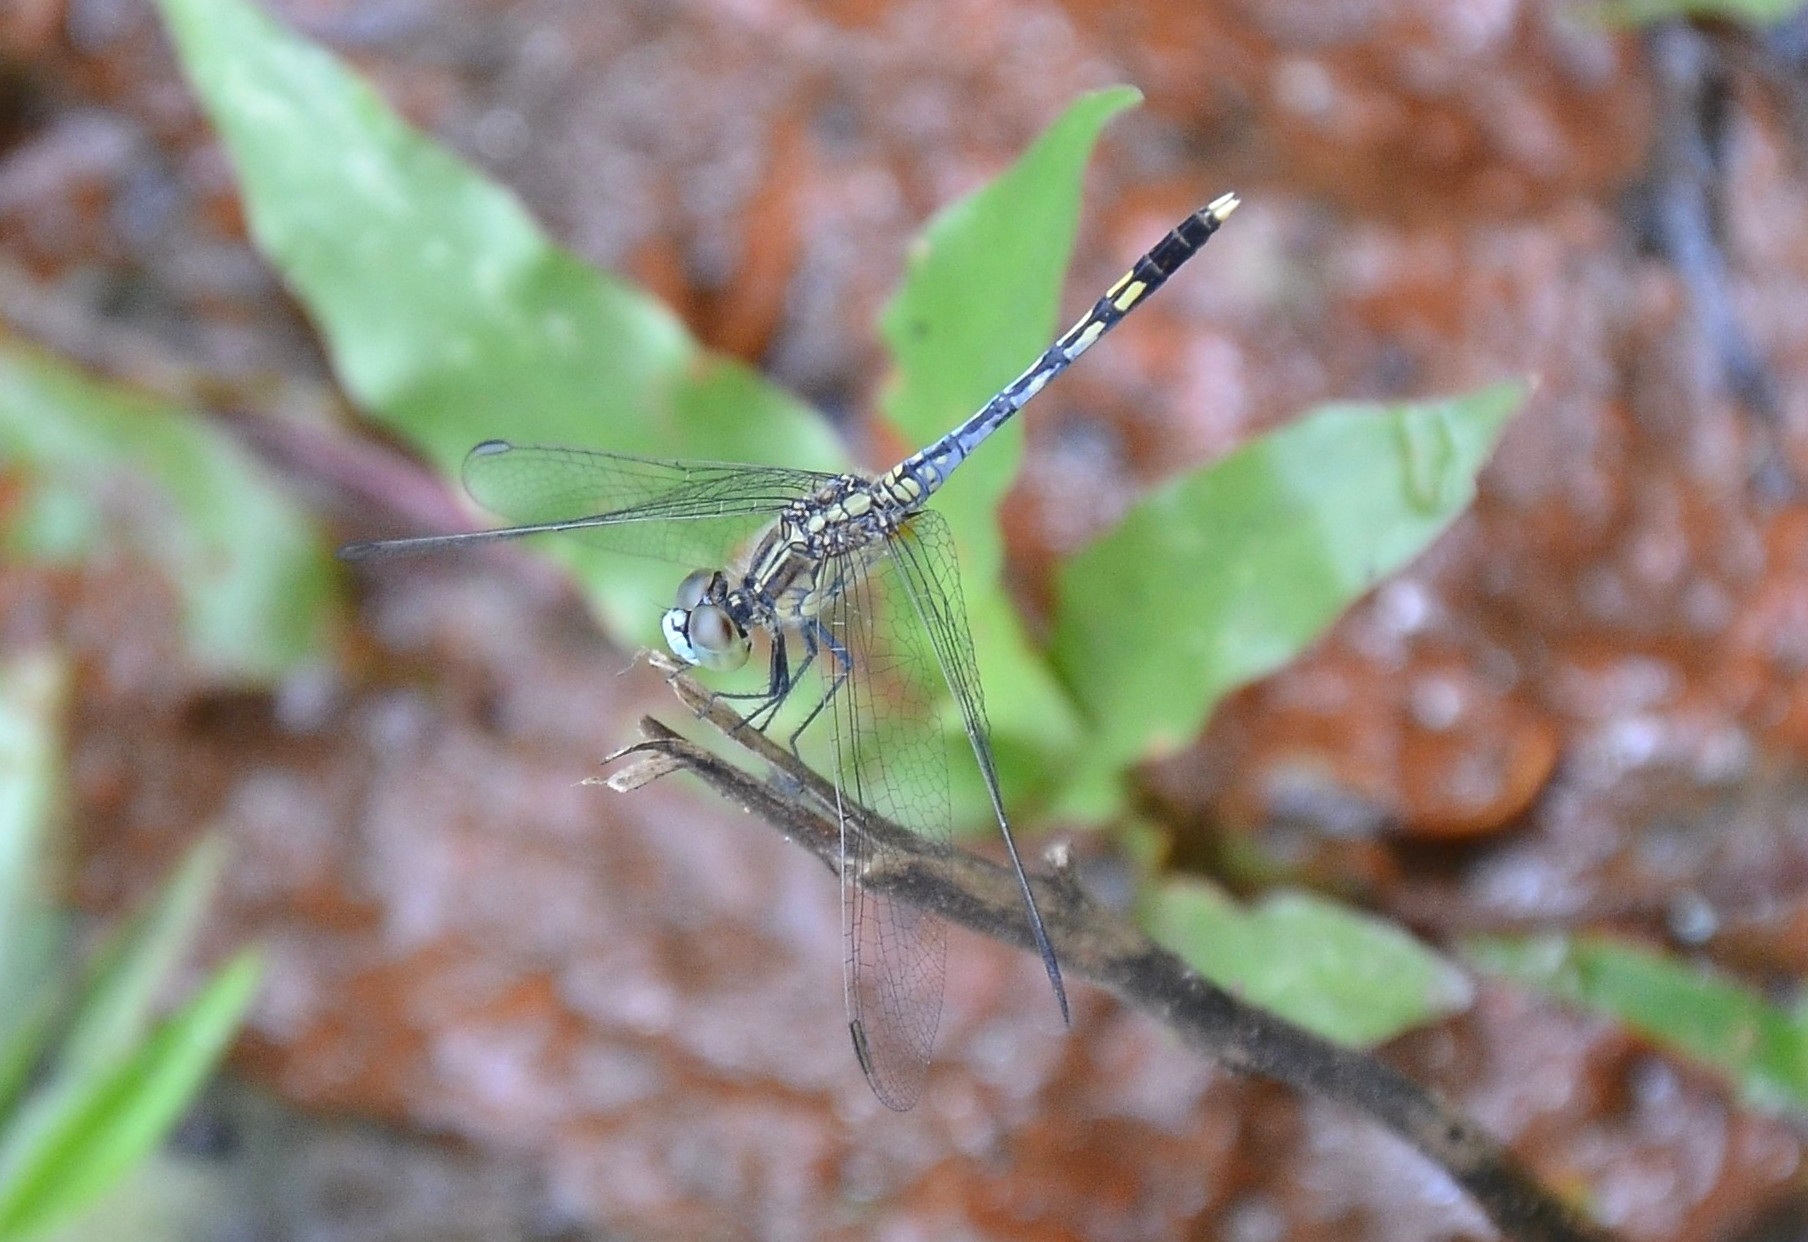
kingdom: Animalia
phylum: Arthropoda
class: Insecta
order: Odonata
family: Libellulidae
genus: Diplacodes
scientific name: Diplacodes trivialis
